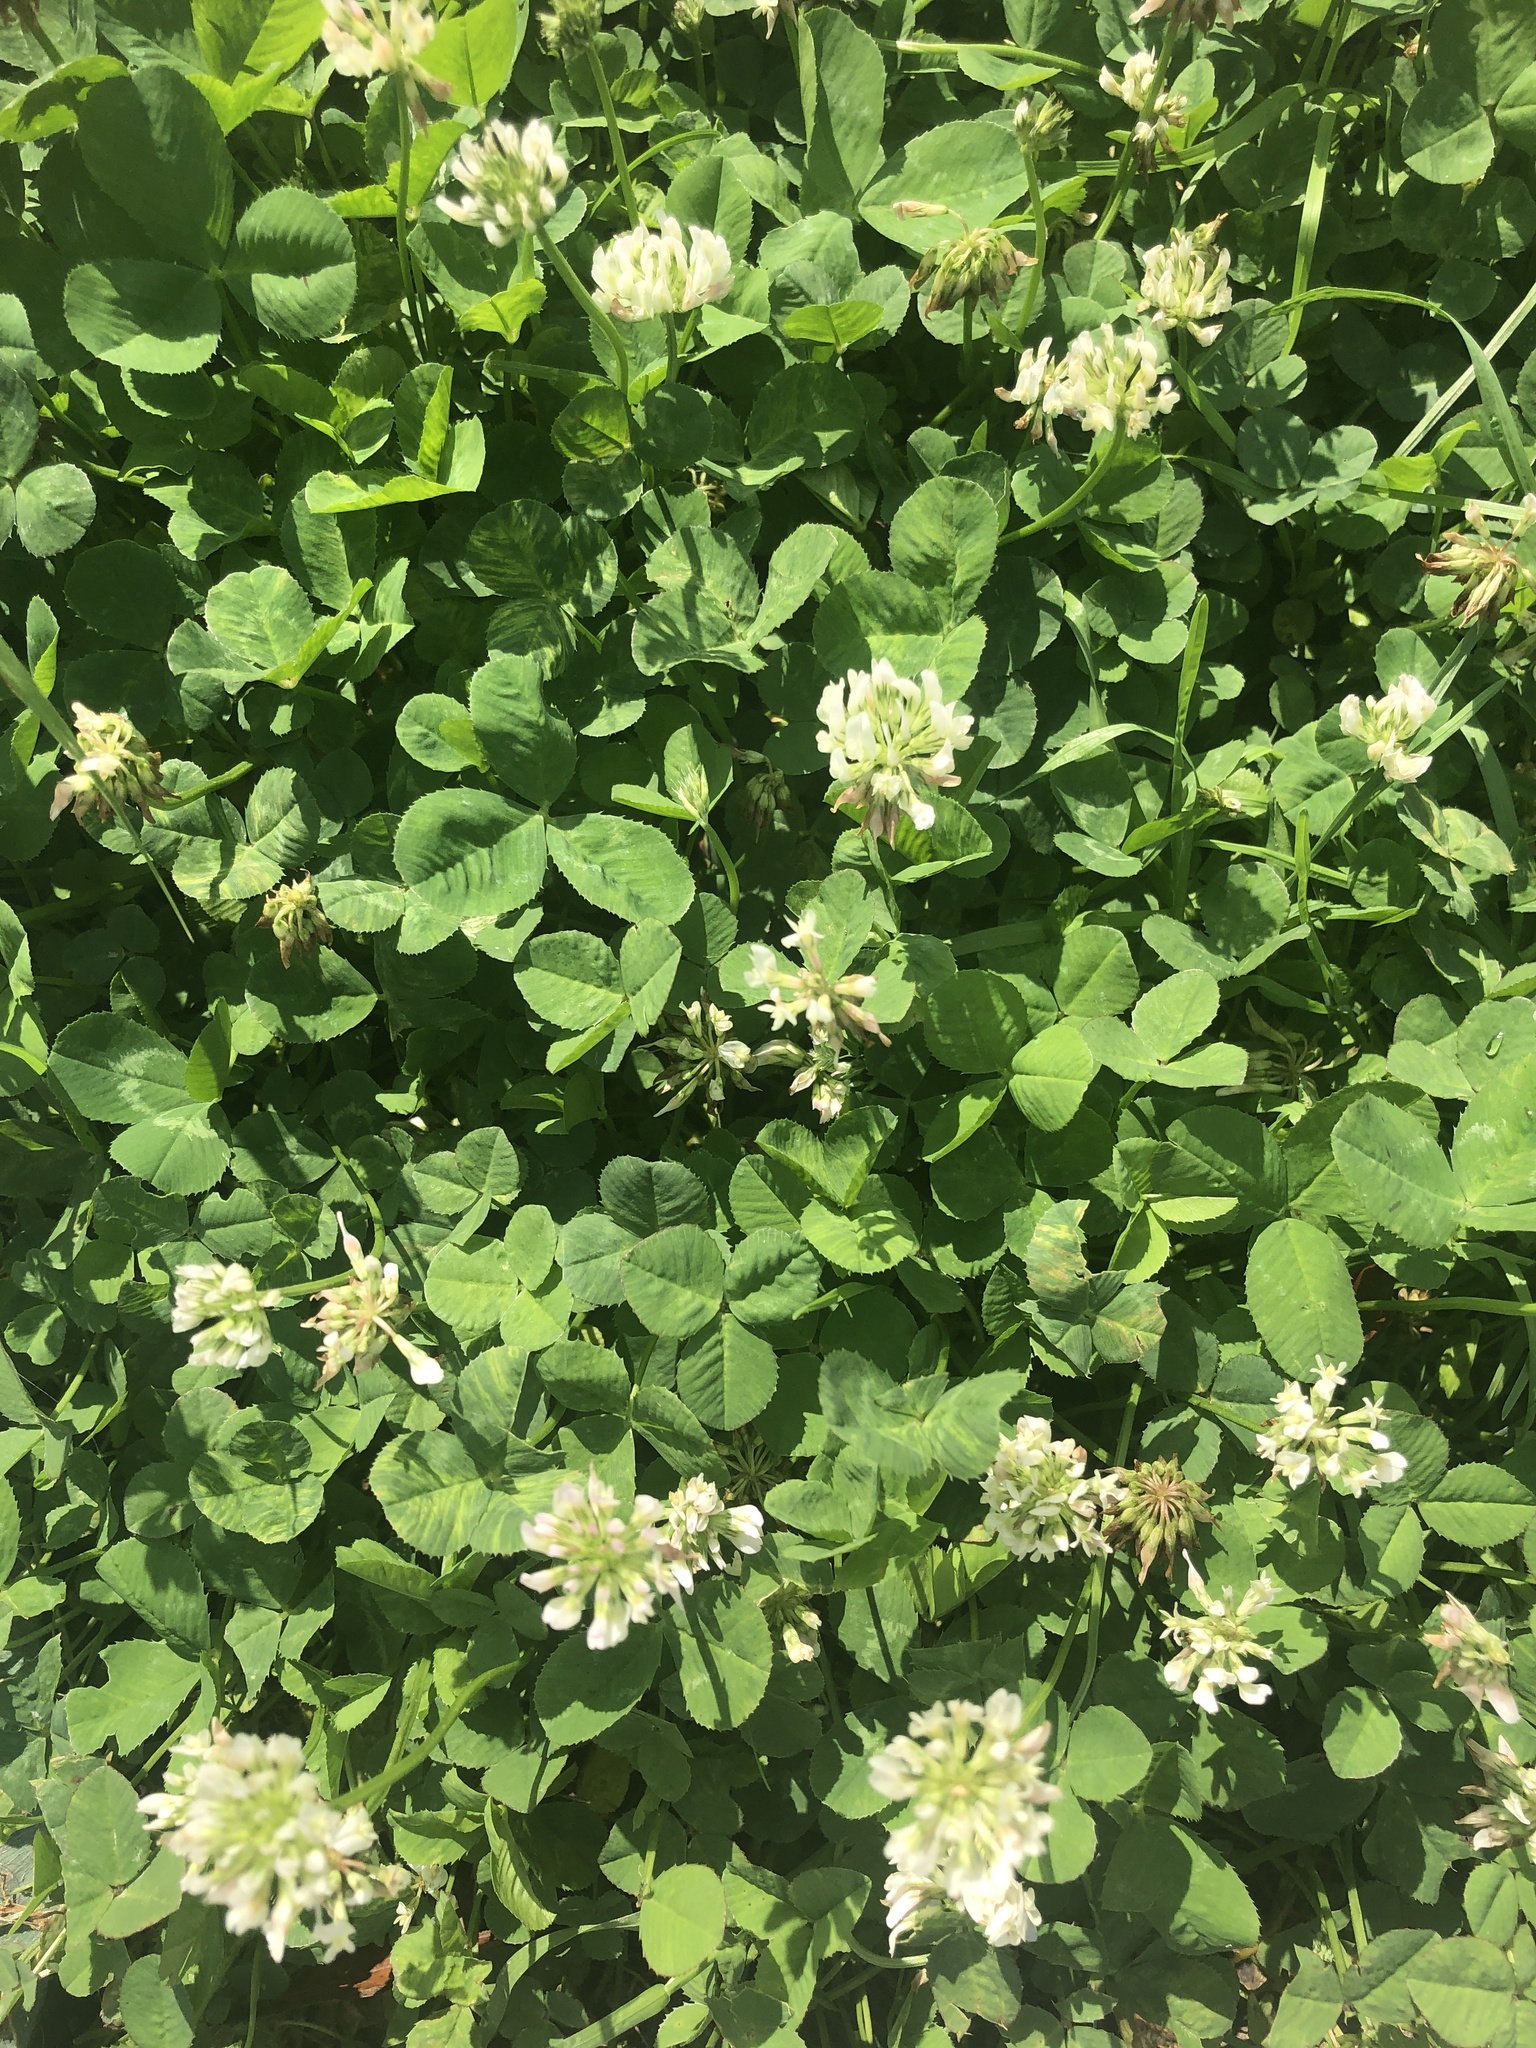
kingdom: Plantae
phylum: Tracheophyta
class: Magnoliopsida
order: Fabales
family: Fabaceae
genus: Trifolium
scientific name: Trifolium repens
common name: White clover
